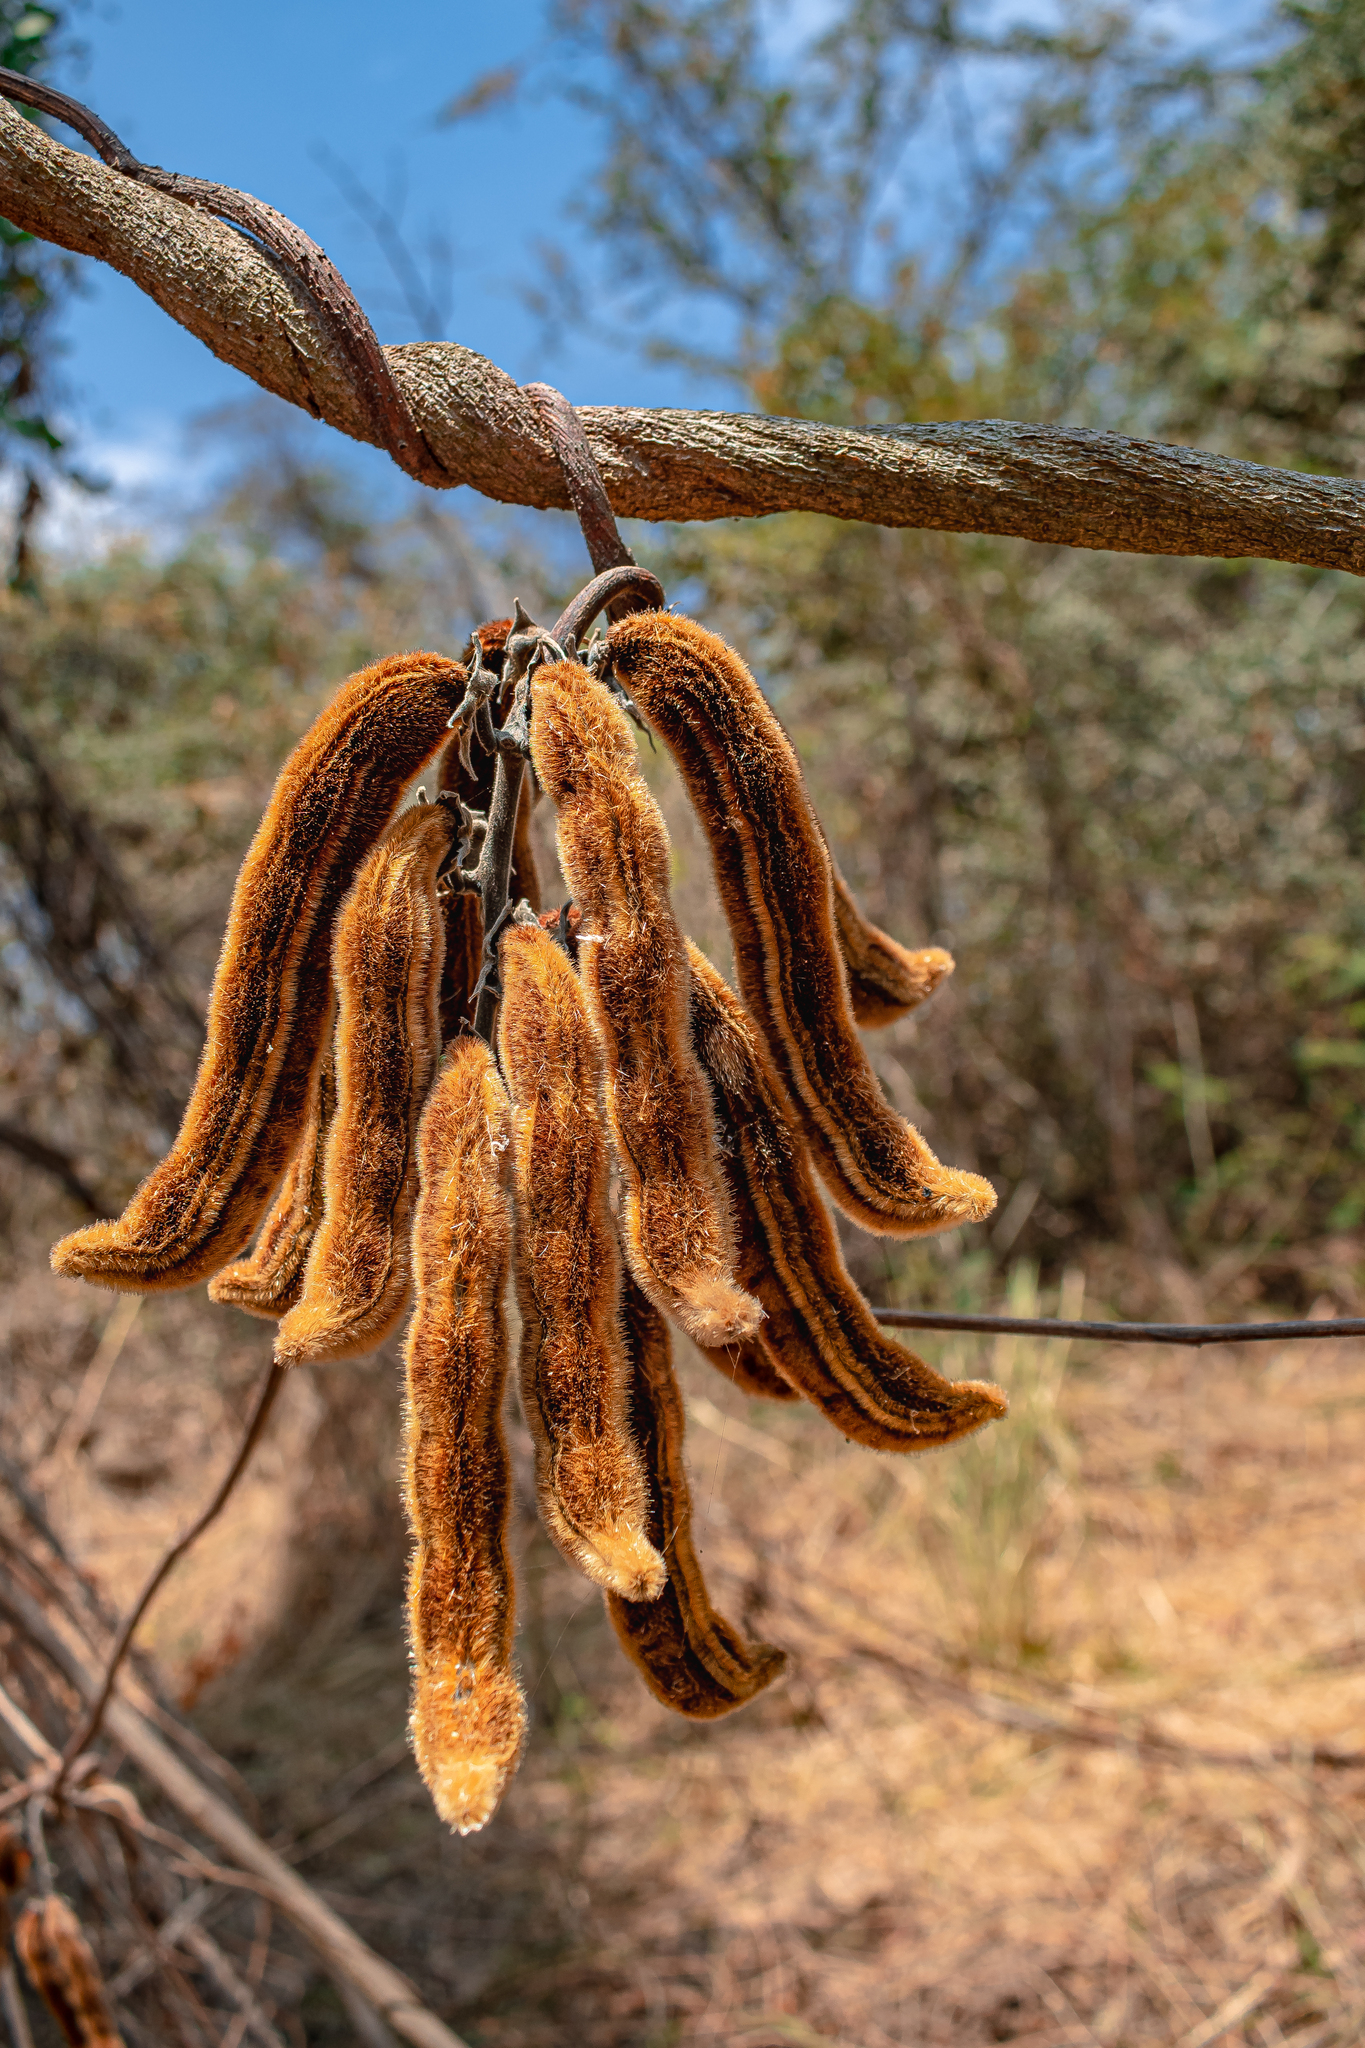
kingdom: Plantae
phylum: Tracheophyta
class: Magnoliopsida
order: Fabales
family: Fabaceae
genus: Mucuna
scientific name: Mucuna pruriens
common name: Cow-itch
